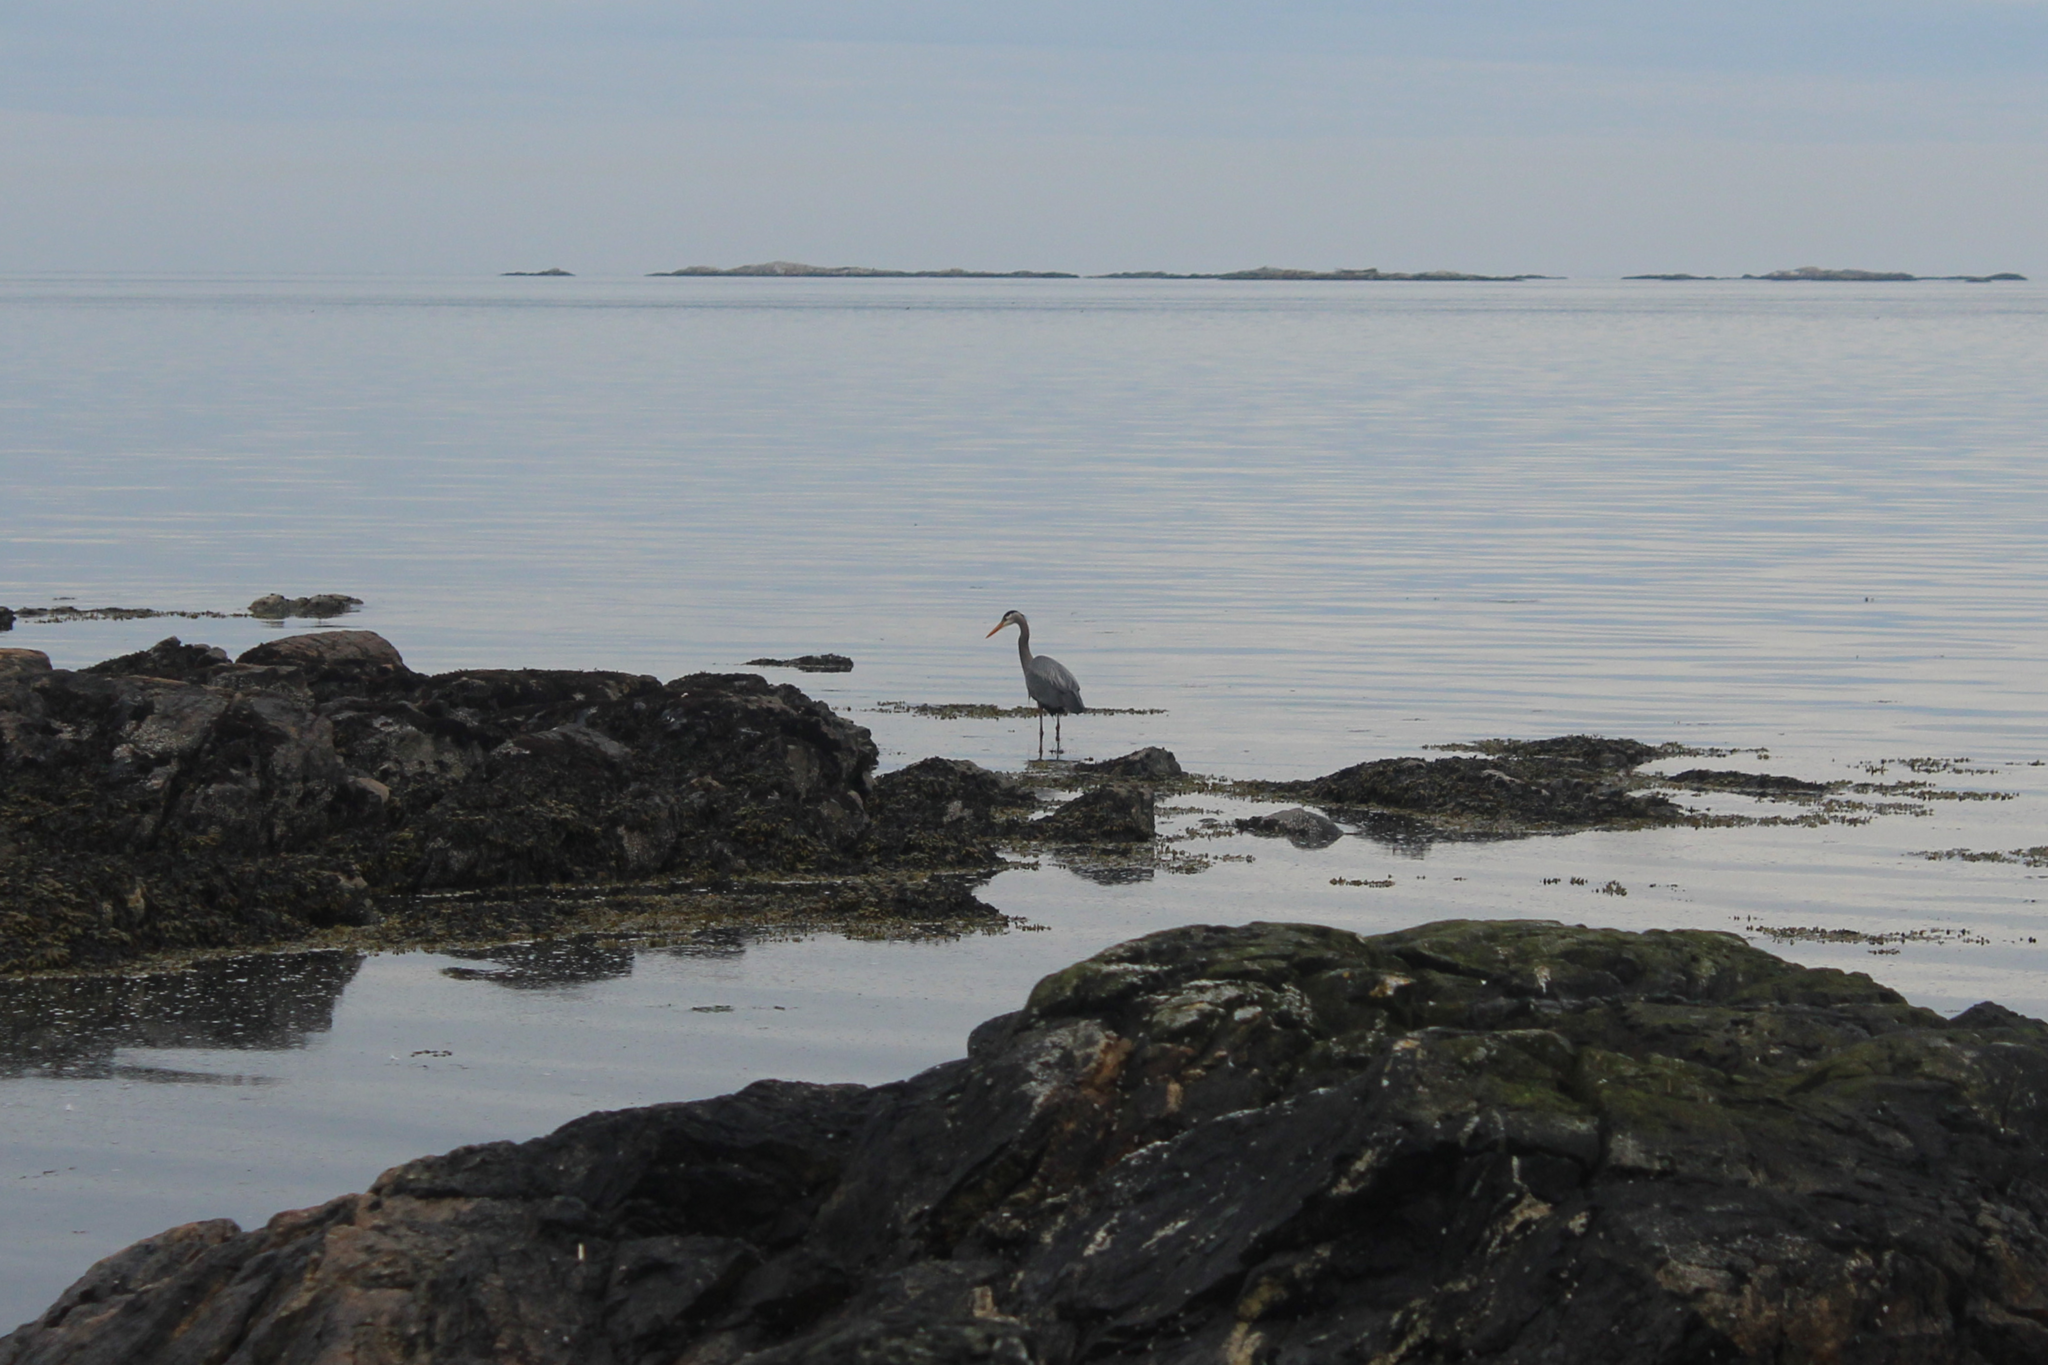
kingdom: Animalia
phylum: Chordata
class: Aves
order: Pelecaniformes
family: Ardeidae
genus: Ardea
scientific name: Ardea herodias
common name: Great blue heron
